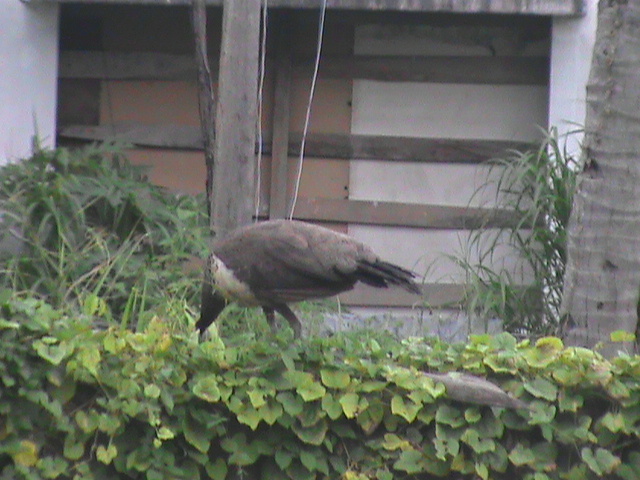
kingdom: Animalia
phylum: Chordata
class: Aves
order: Galliformes
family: Phasianidae
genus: Pavo
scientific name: Pavo cristatus
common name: Indian peafowl
